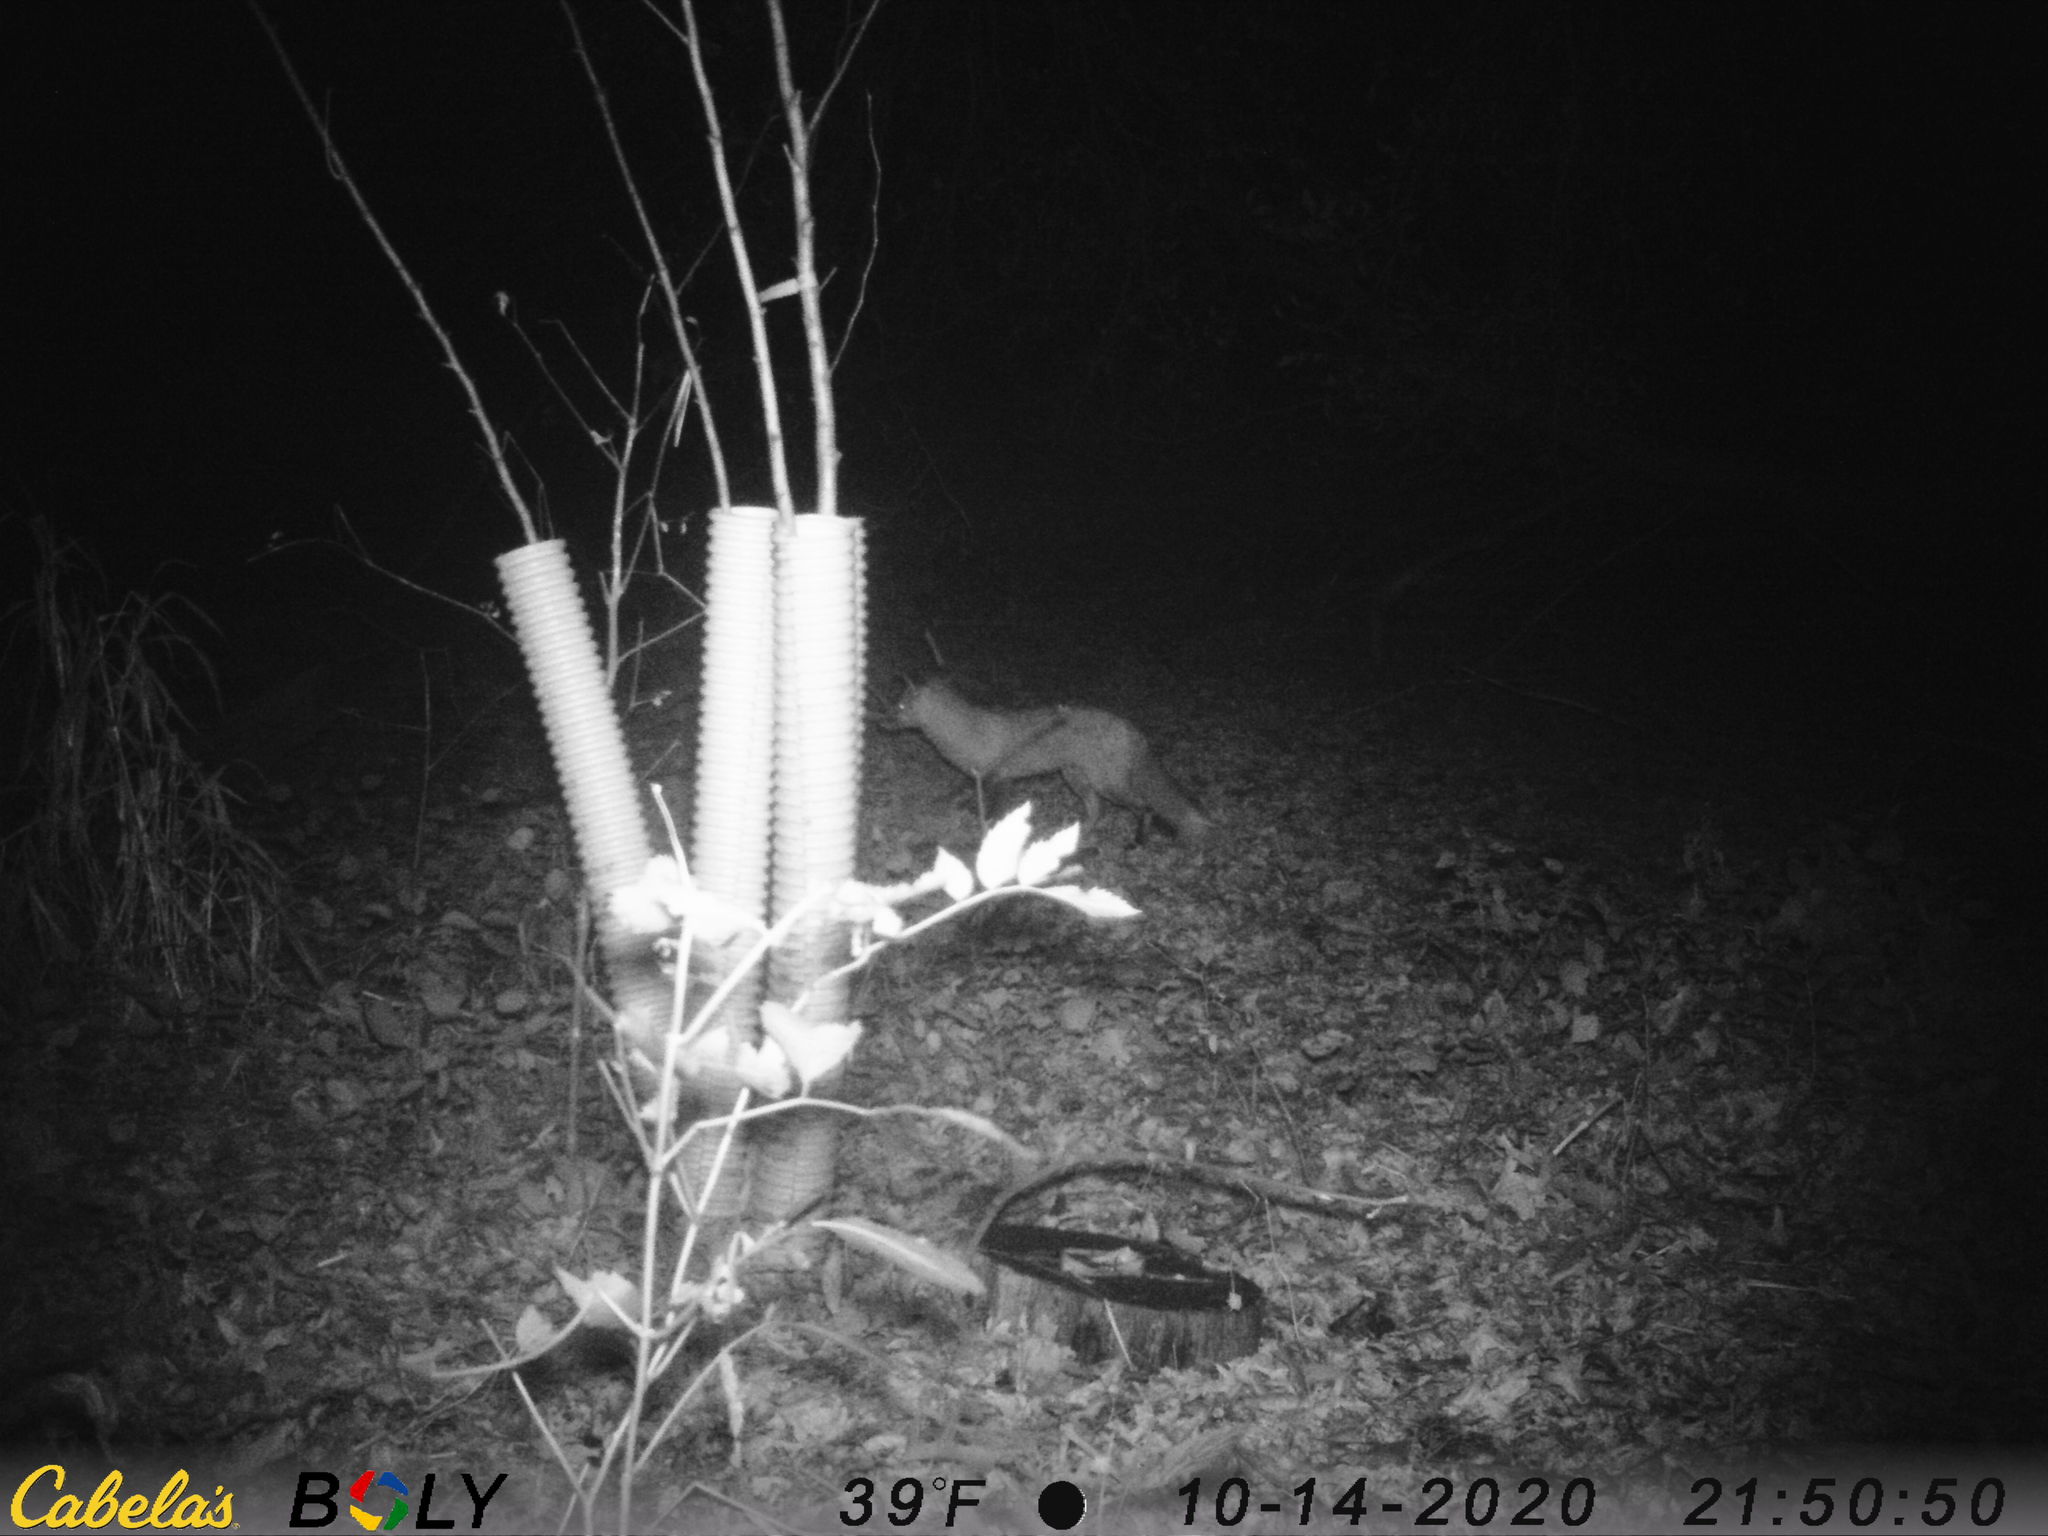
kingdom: Animalia
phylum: Chordata
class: Mammalia
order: Carnivora
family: Canidae
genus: Vulpes
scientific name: Vulpes vulpes
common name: Red fox
